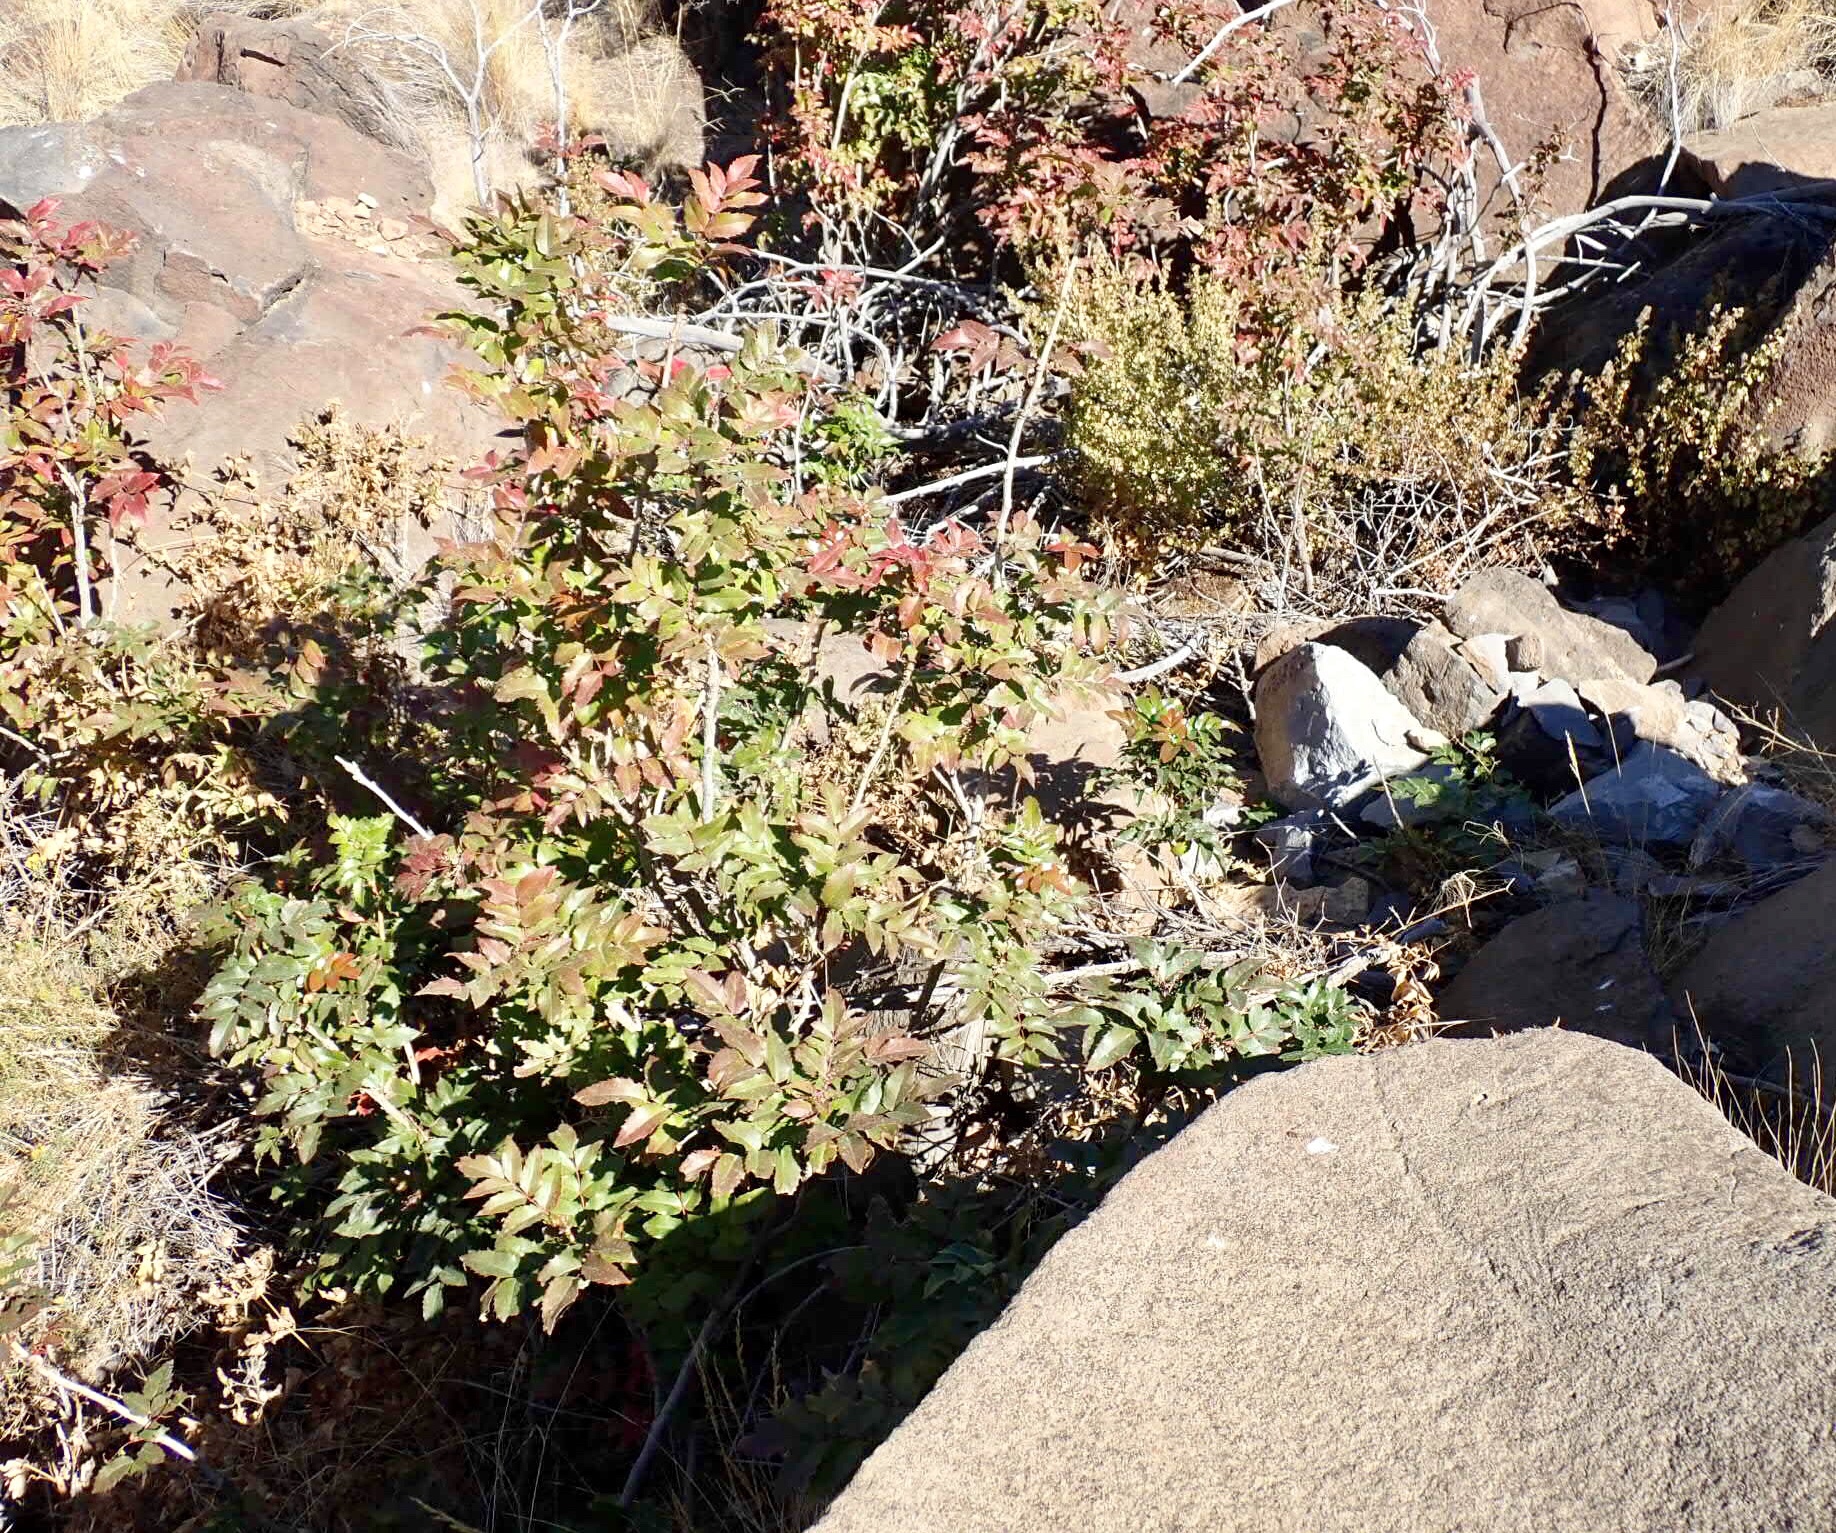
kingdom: Plantae
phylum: Tracheophyta
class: Magnoliopsida
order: Ranunculales
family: Berberidaceae
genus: Mahonia
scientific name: Mahonia aquifolium
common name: Oregon-grape
